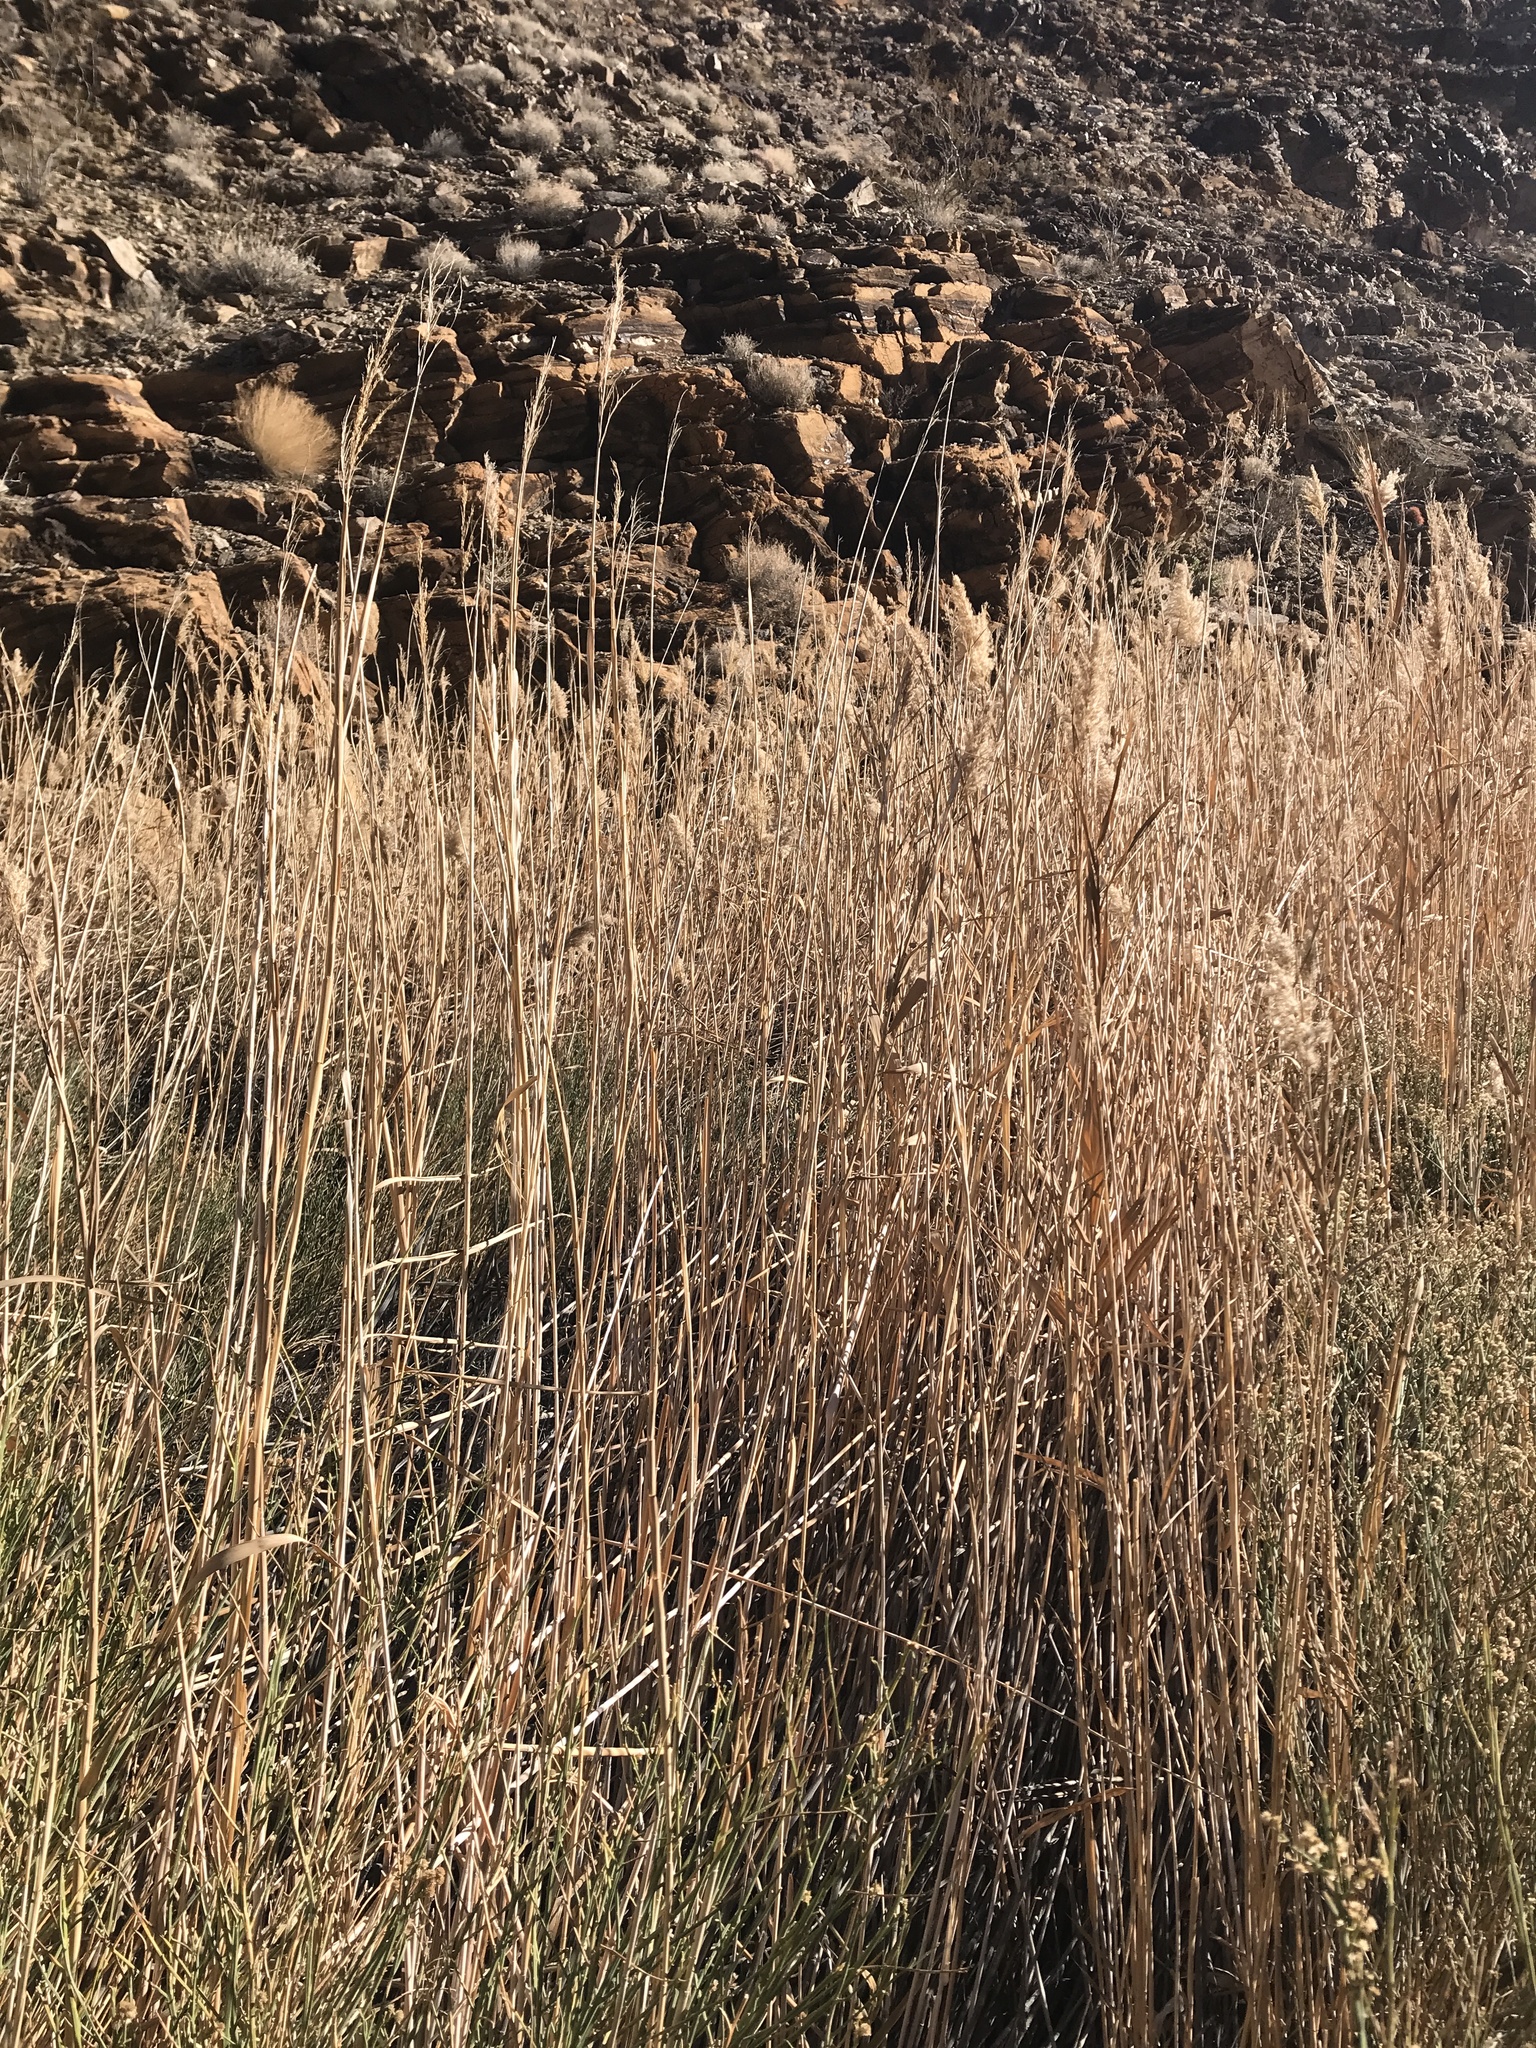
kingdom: Plantae
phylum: Tracheophyta
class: Liliopsida
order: Poales
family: Poaceae
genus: Phragmites
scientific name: Phragmites australis
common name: Common reed
